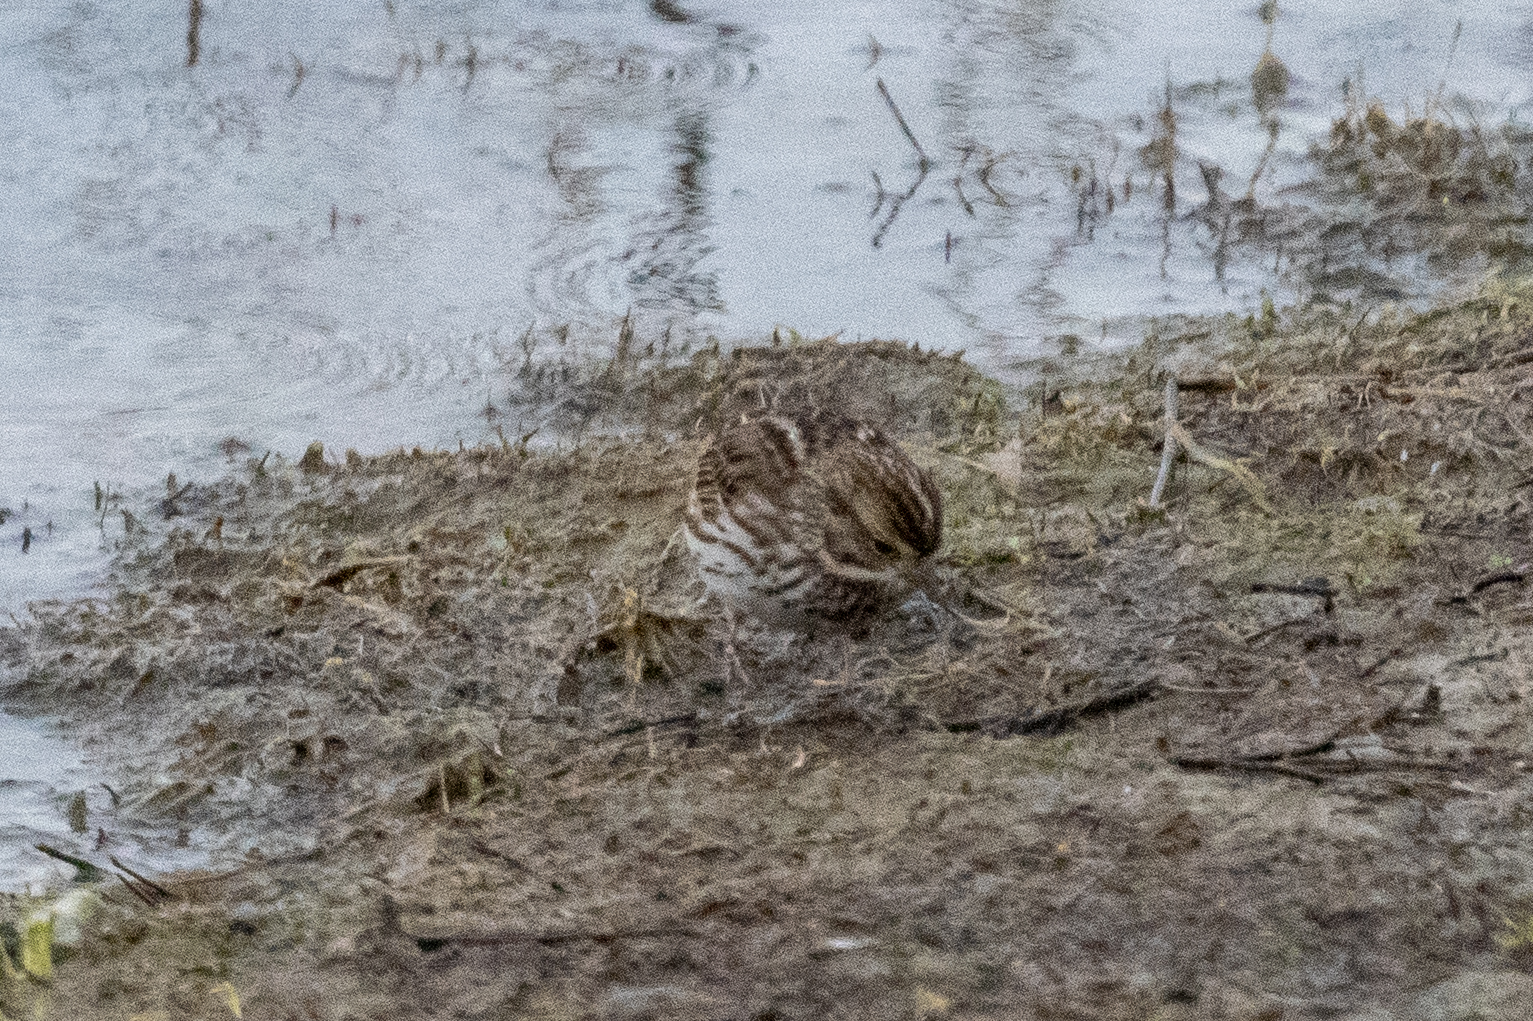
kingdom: Animalia
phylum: Chordata
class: Aves
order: Passeriformes
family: Passerellidae
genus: Passerculus
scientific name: Passerculus sandwichensis
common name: Savannah sparrow
